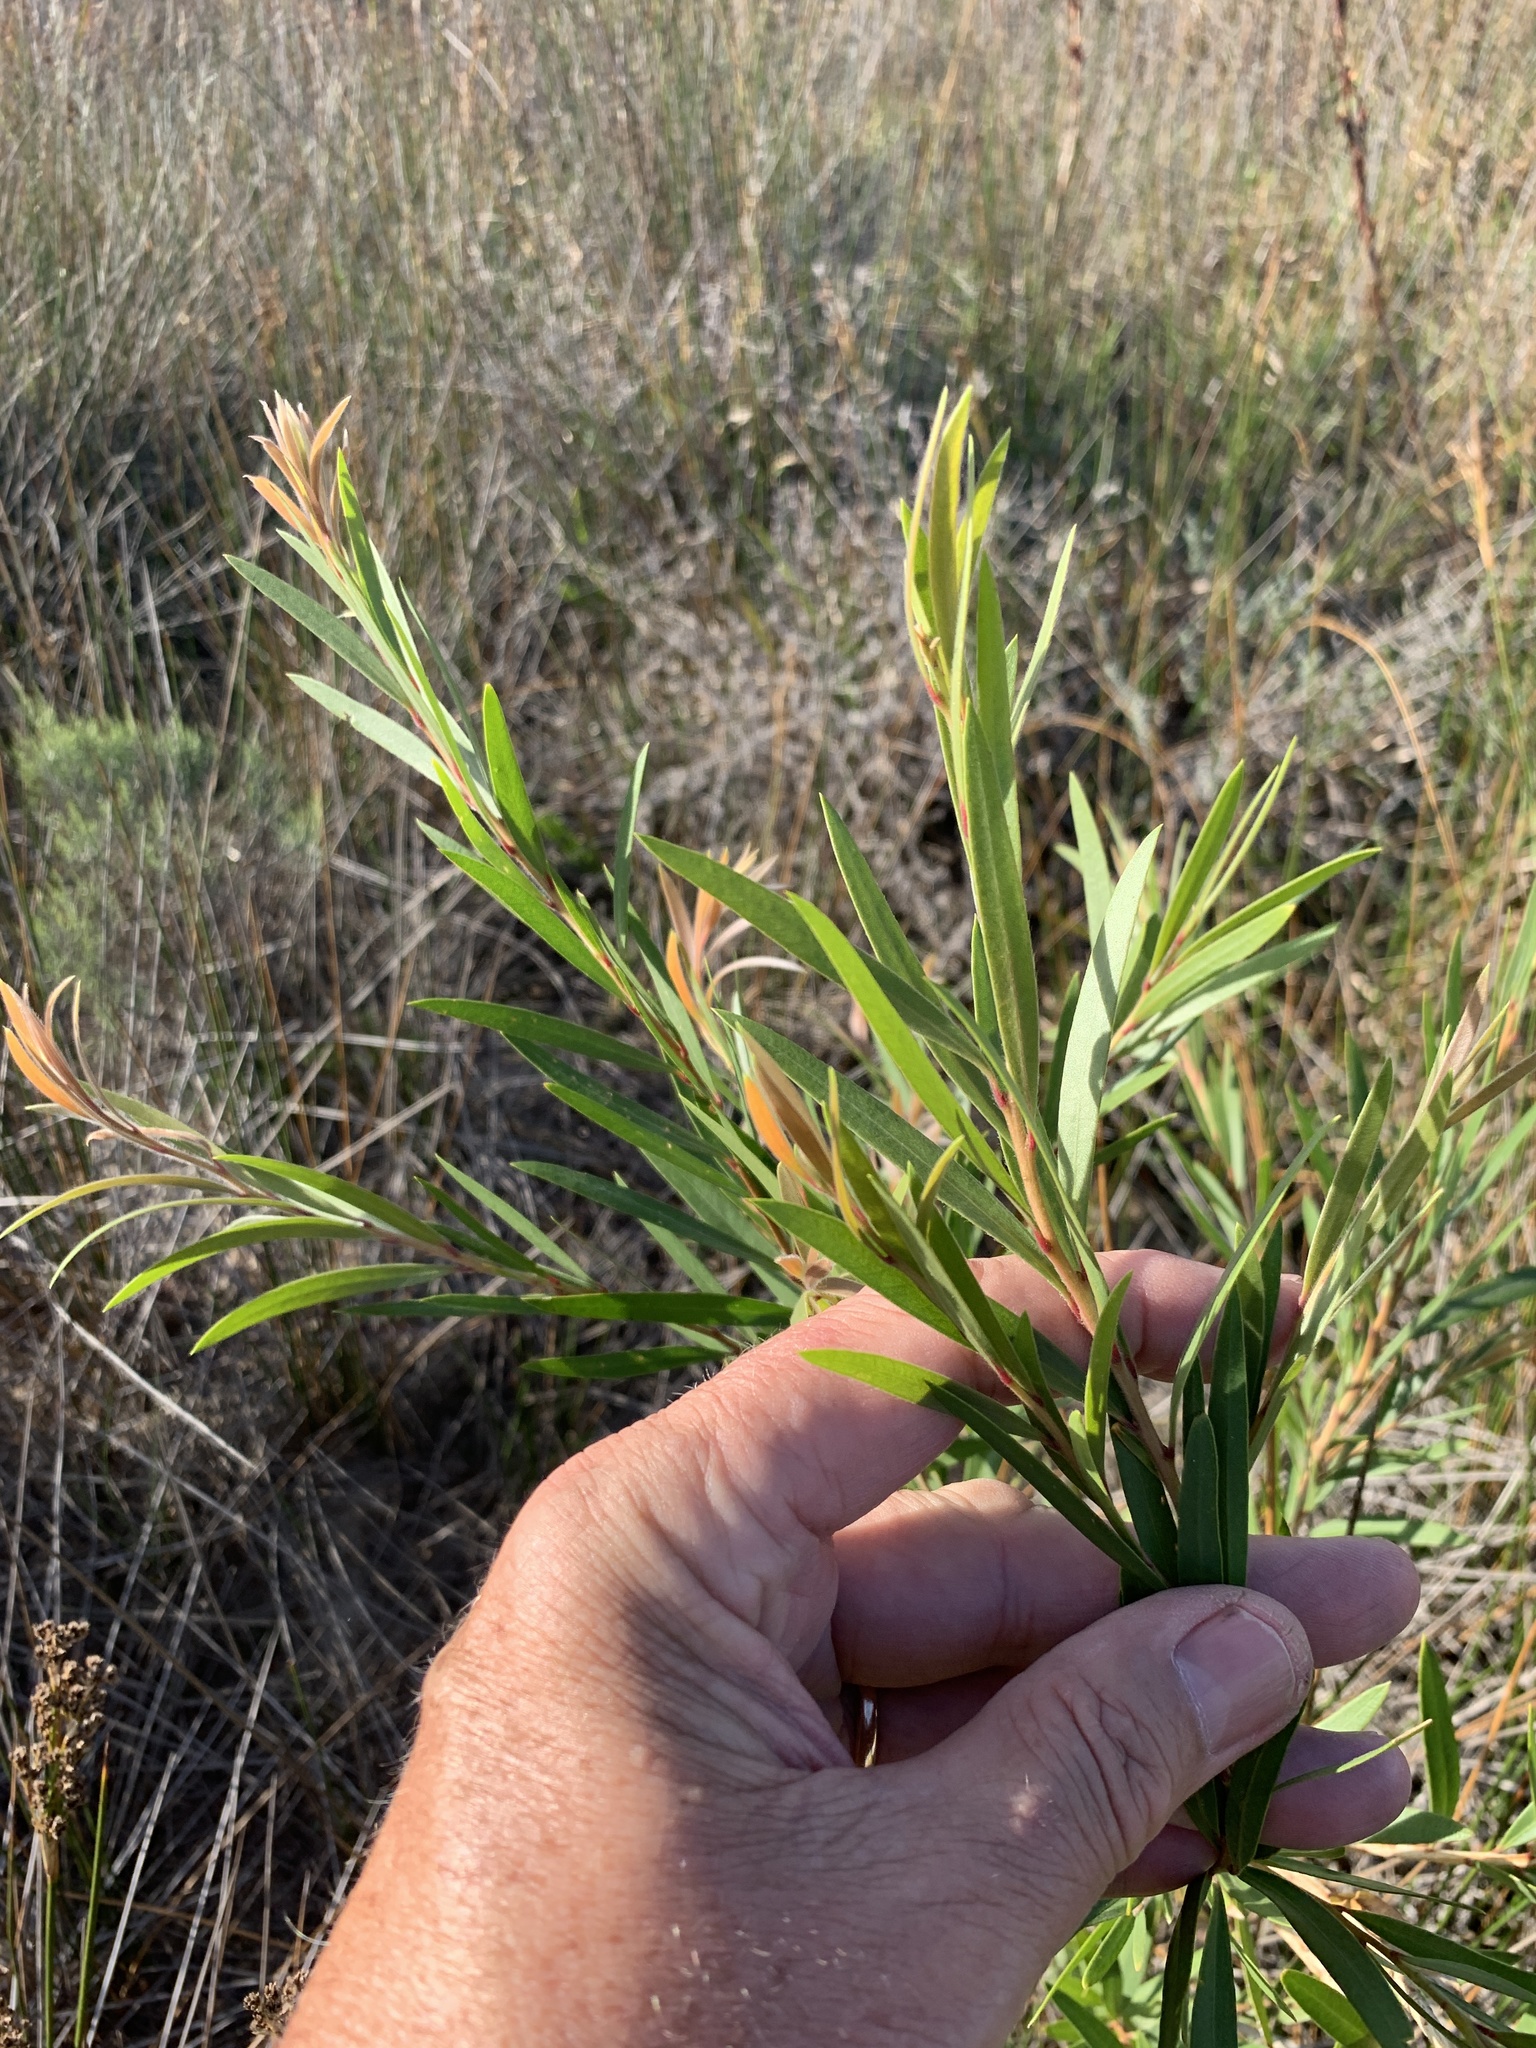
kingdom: Plantae
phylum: Tracheophyta
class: Magnoliopsida
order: Myrtales
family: Myrtaceae
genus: Callistemon
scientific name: Callistemon viminalis
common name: Drooping bottlebrush
